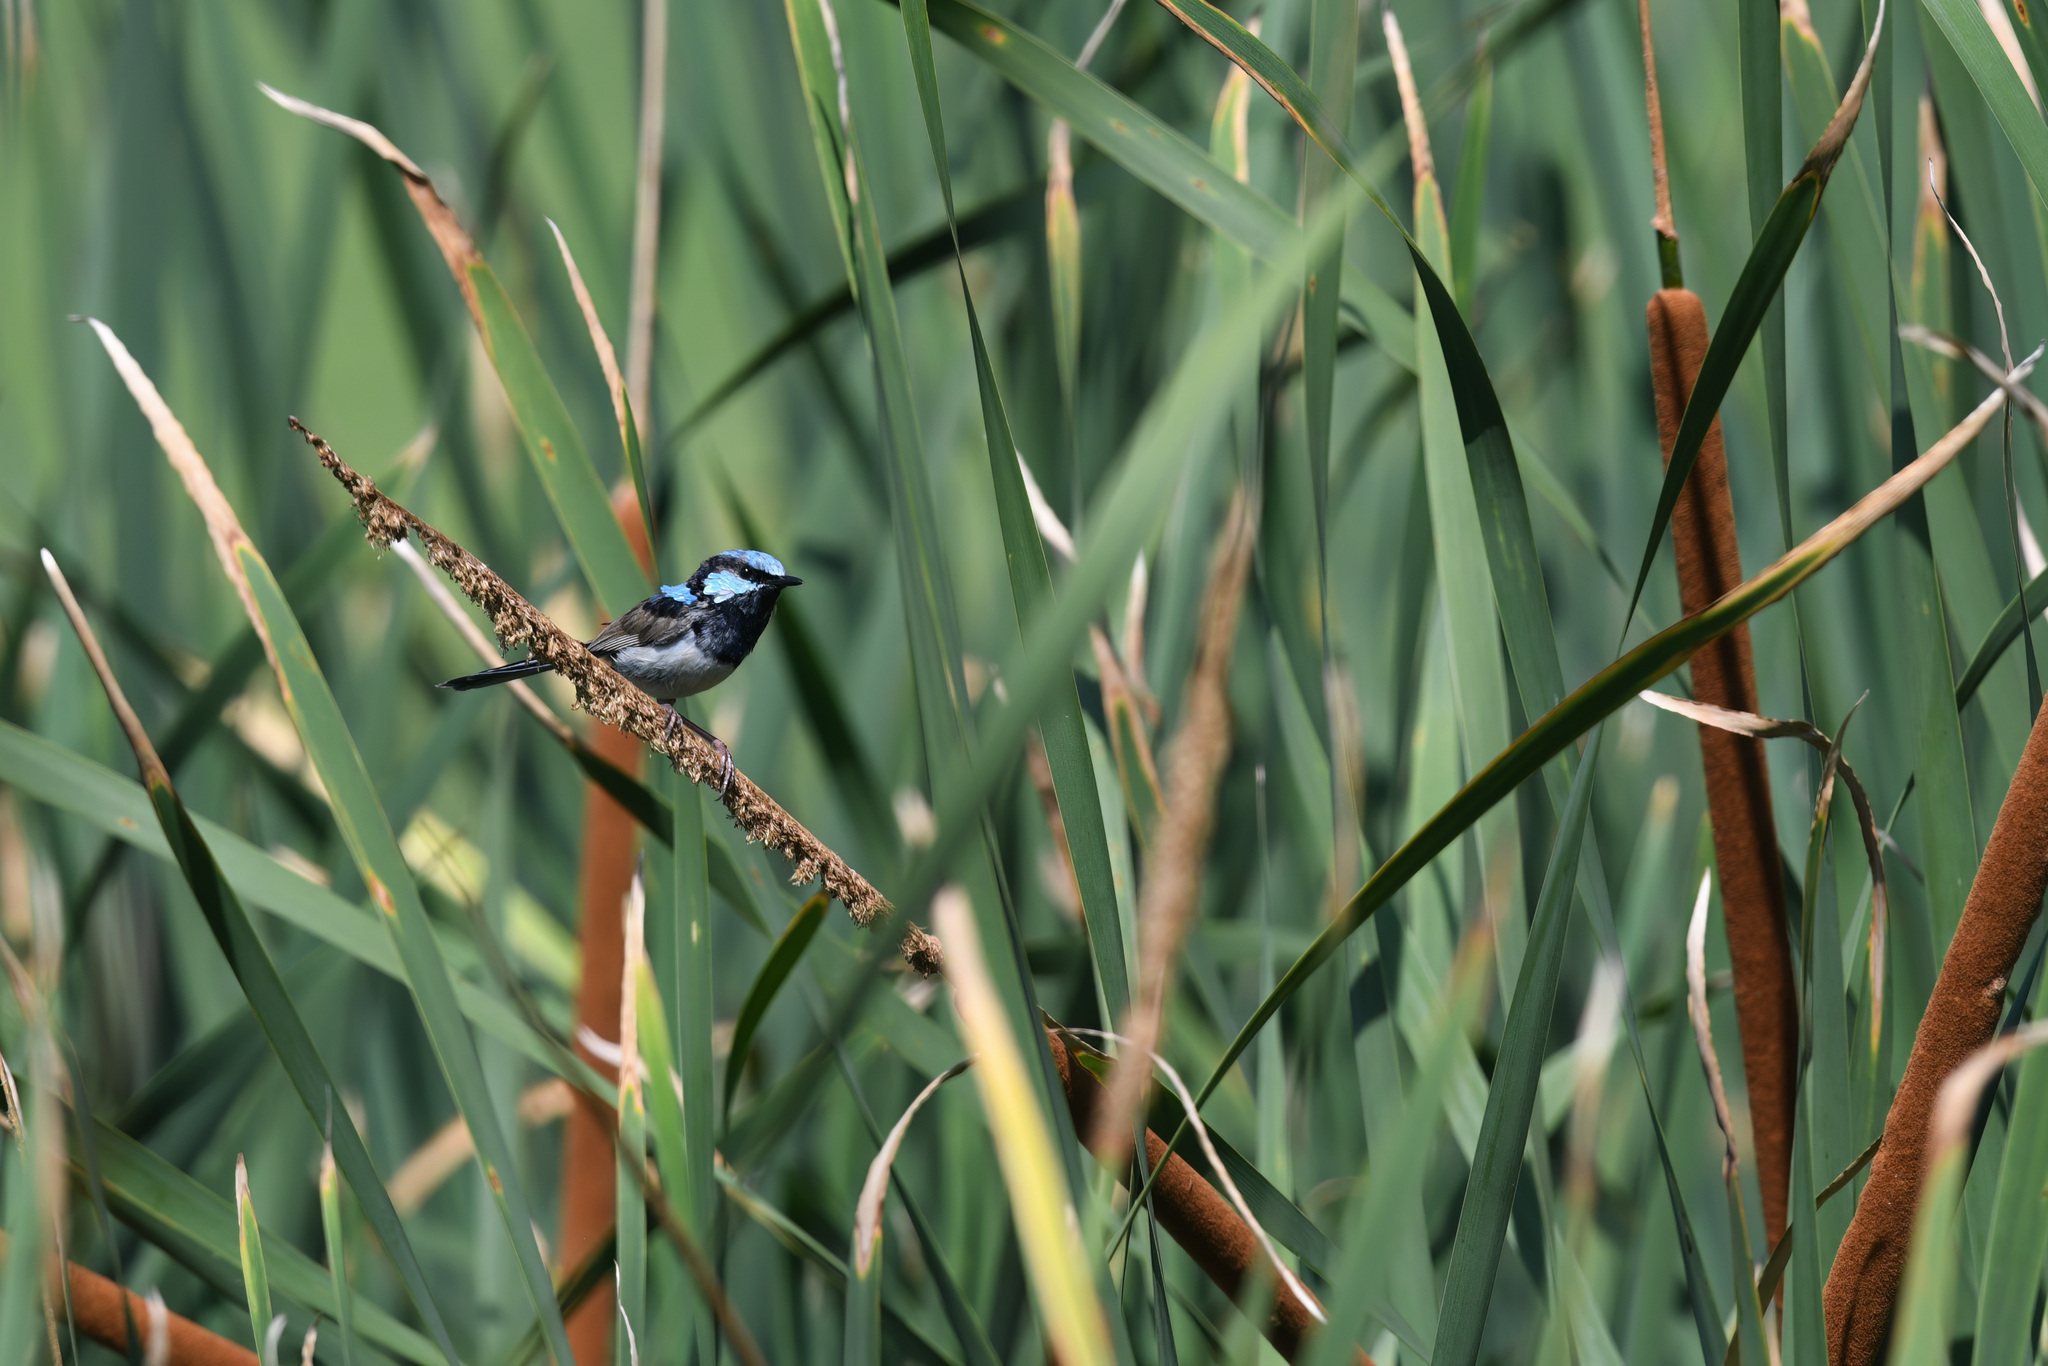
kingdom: Animalia
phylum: Chordata
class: Aves
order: Passeriformes
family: Maluridae
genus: Malurus
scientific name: Malurus cyaneus
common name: Superb fairywren
